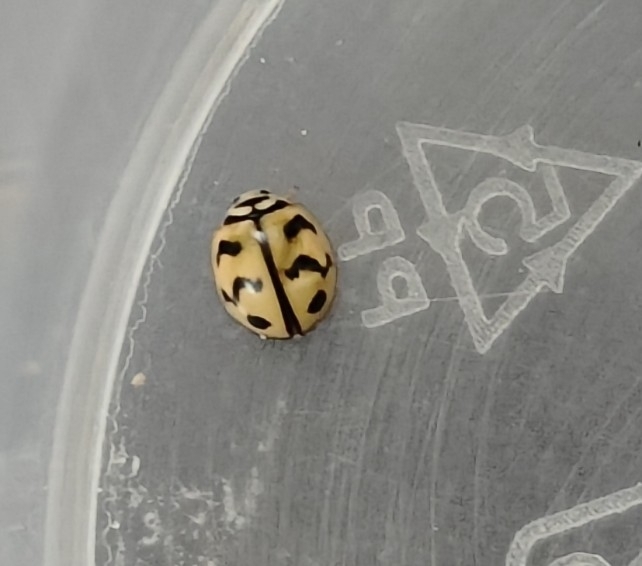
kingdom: Animalia
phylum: Arthropoda
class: Insecta
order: Coleoptera
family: Coccinellidae
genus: Cheilomenes
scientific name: Cheilomenes sexmaculata
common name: Ladybird beetle
